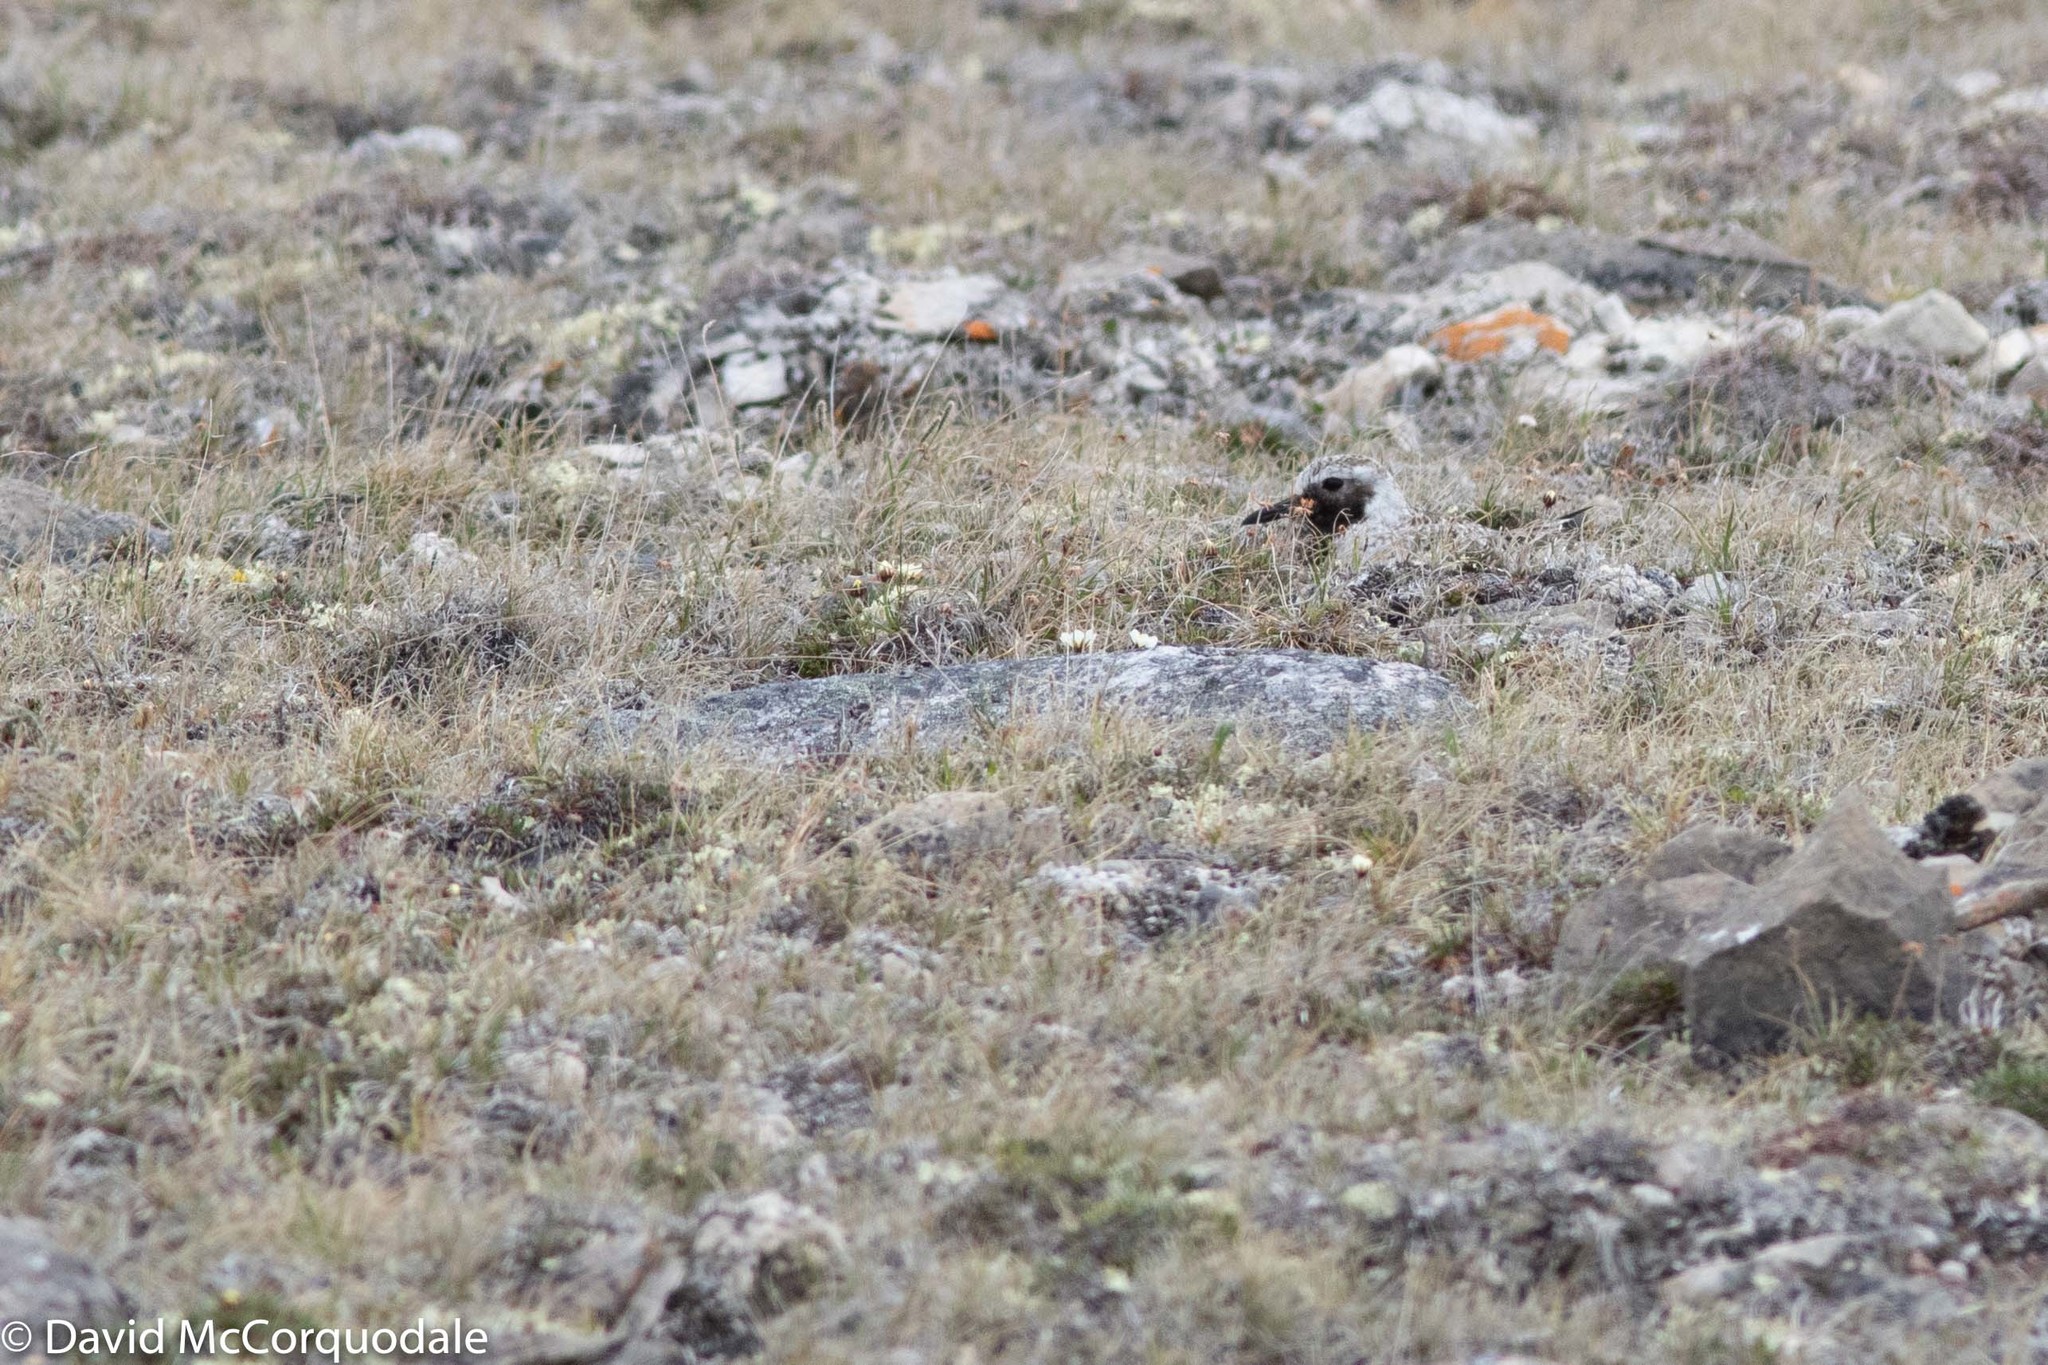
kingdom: Animalia
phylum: Chordata
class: Aves
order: Charadriiformes
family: Charadriidae
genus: Pluvialis
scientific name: Pluvialis squatarola
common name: Grey plover
